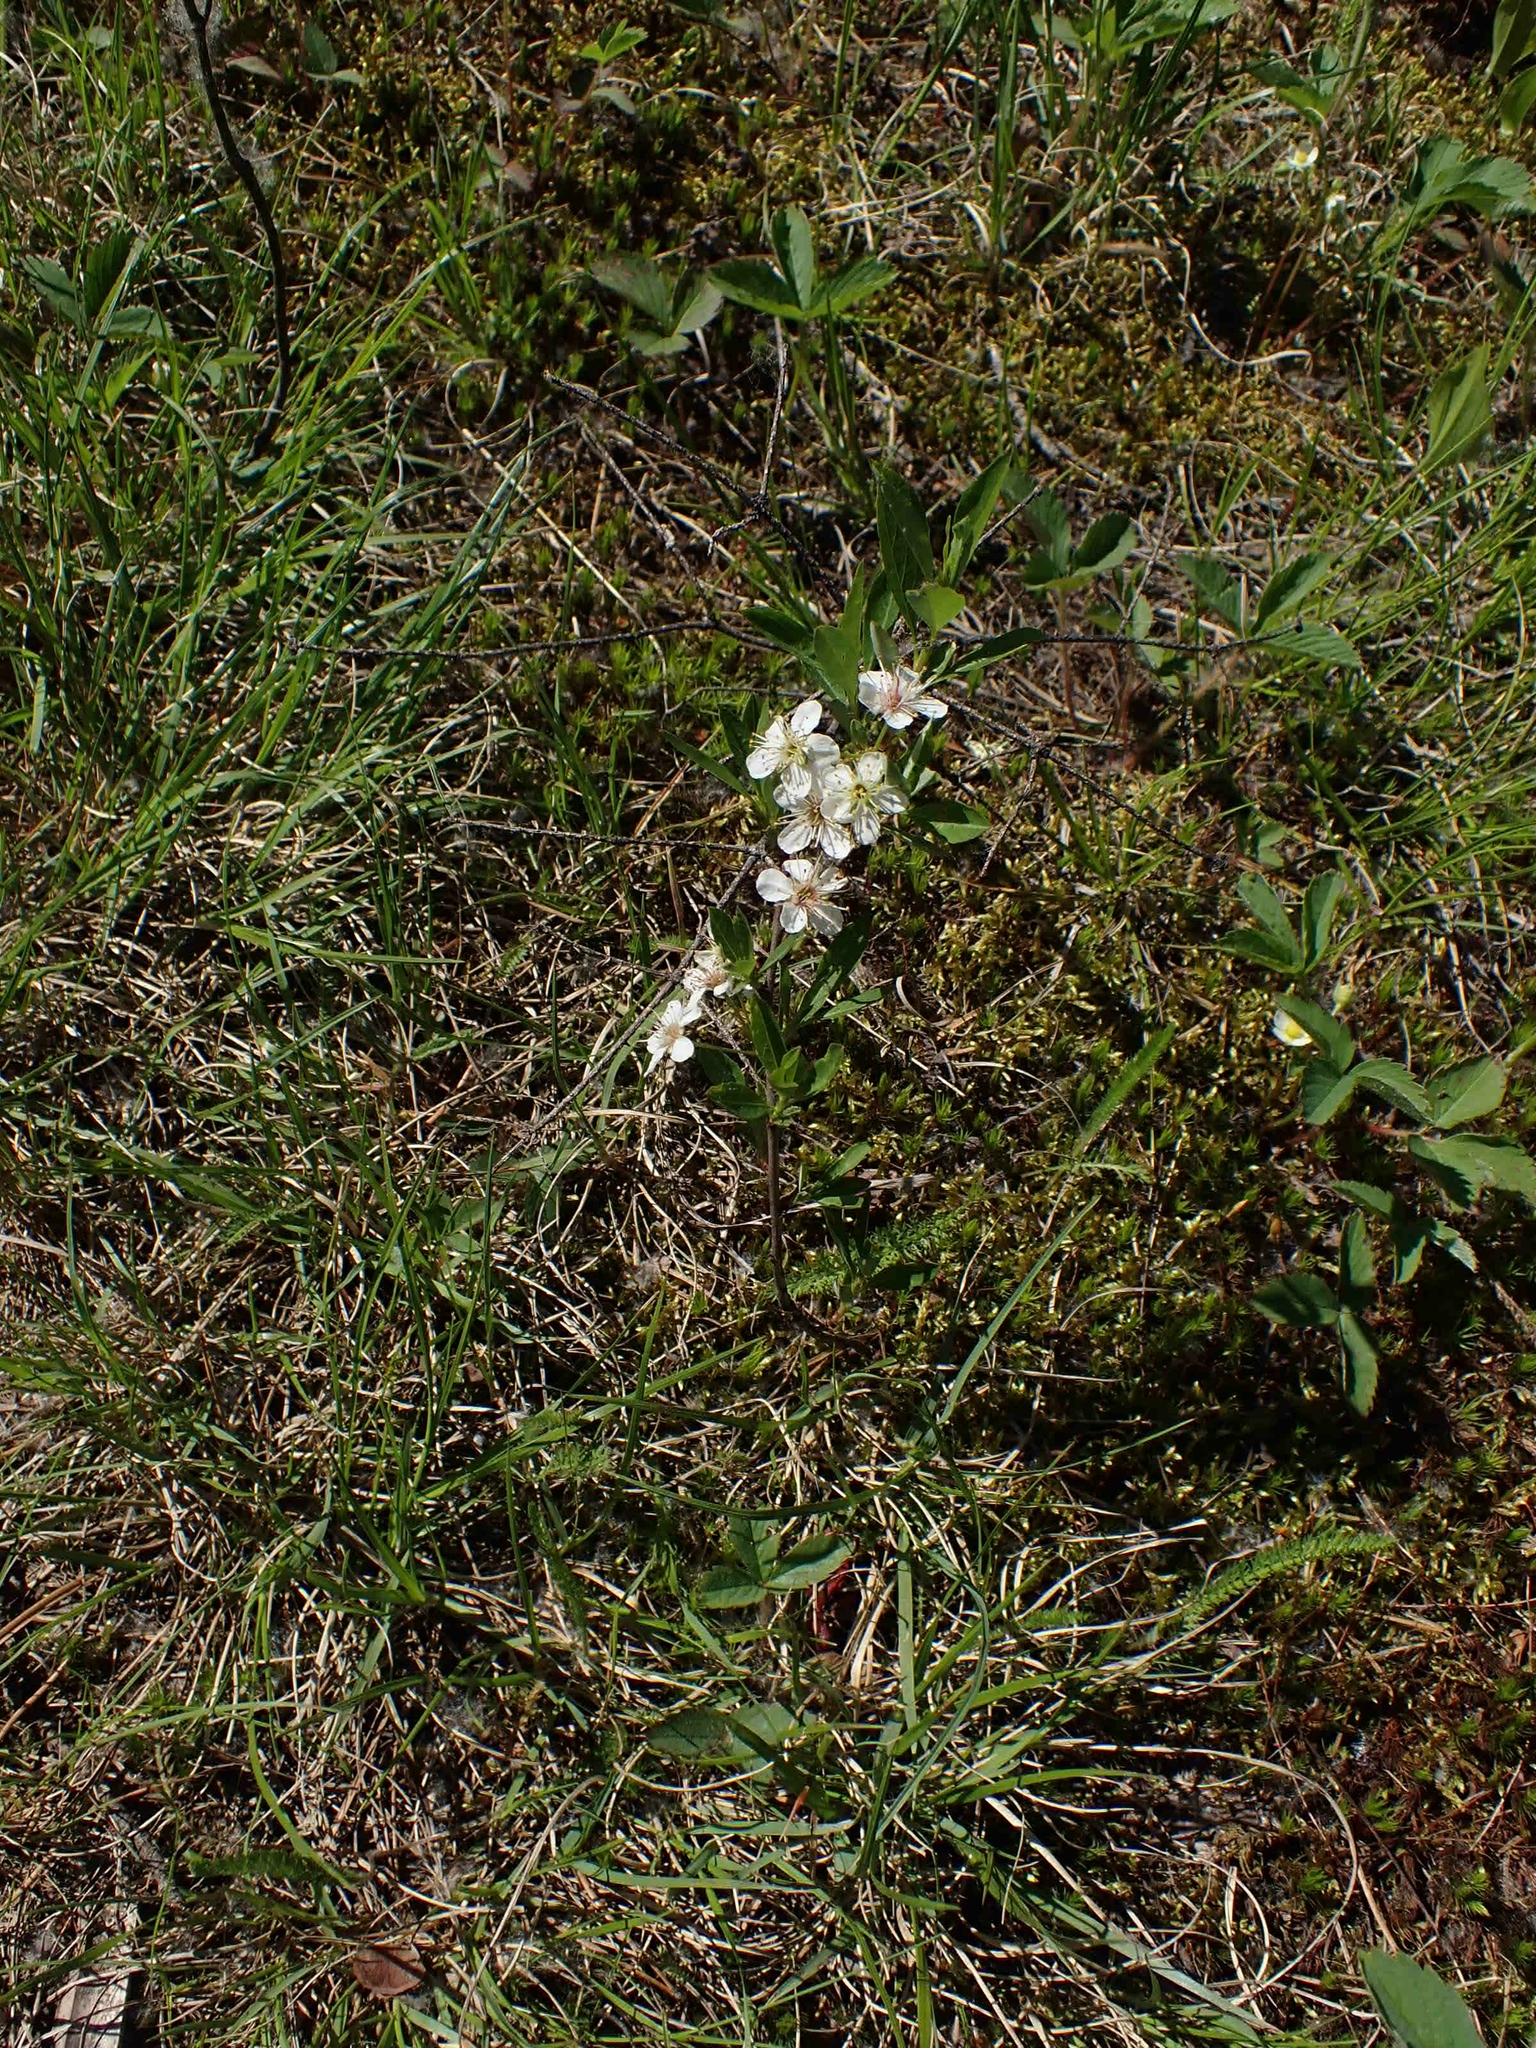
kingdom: Plantae
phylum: Tracheophyta
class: Magnoliopsida
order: Rosales
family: Rosaceae
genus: Prunus
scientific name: Prunus pumila
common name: Dwarf cherry
